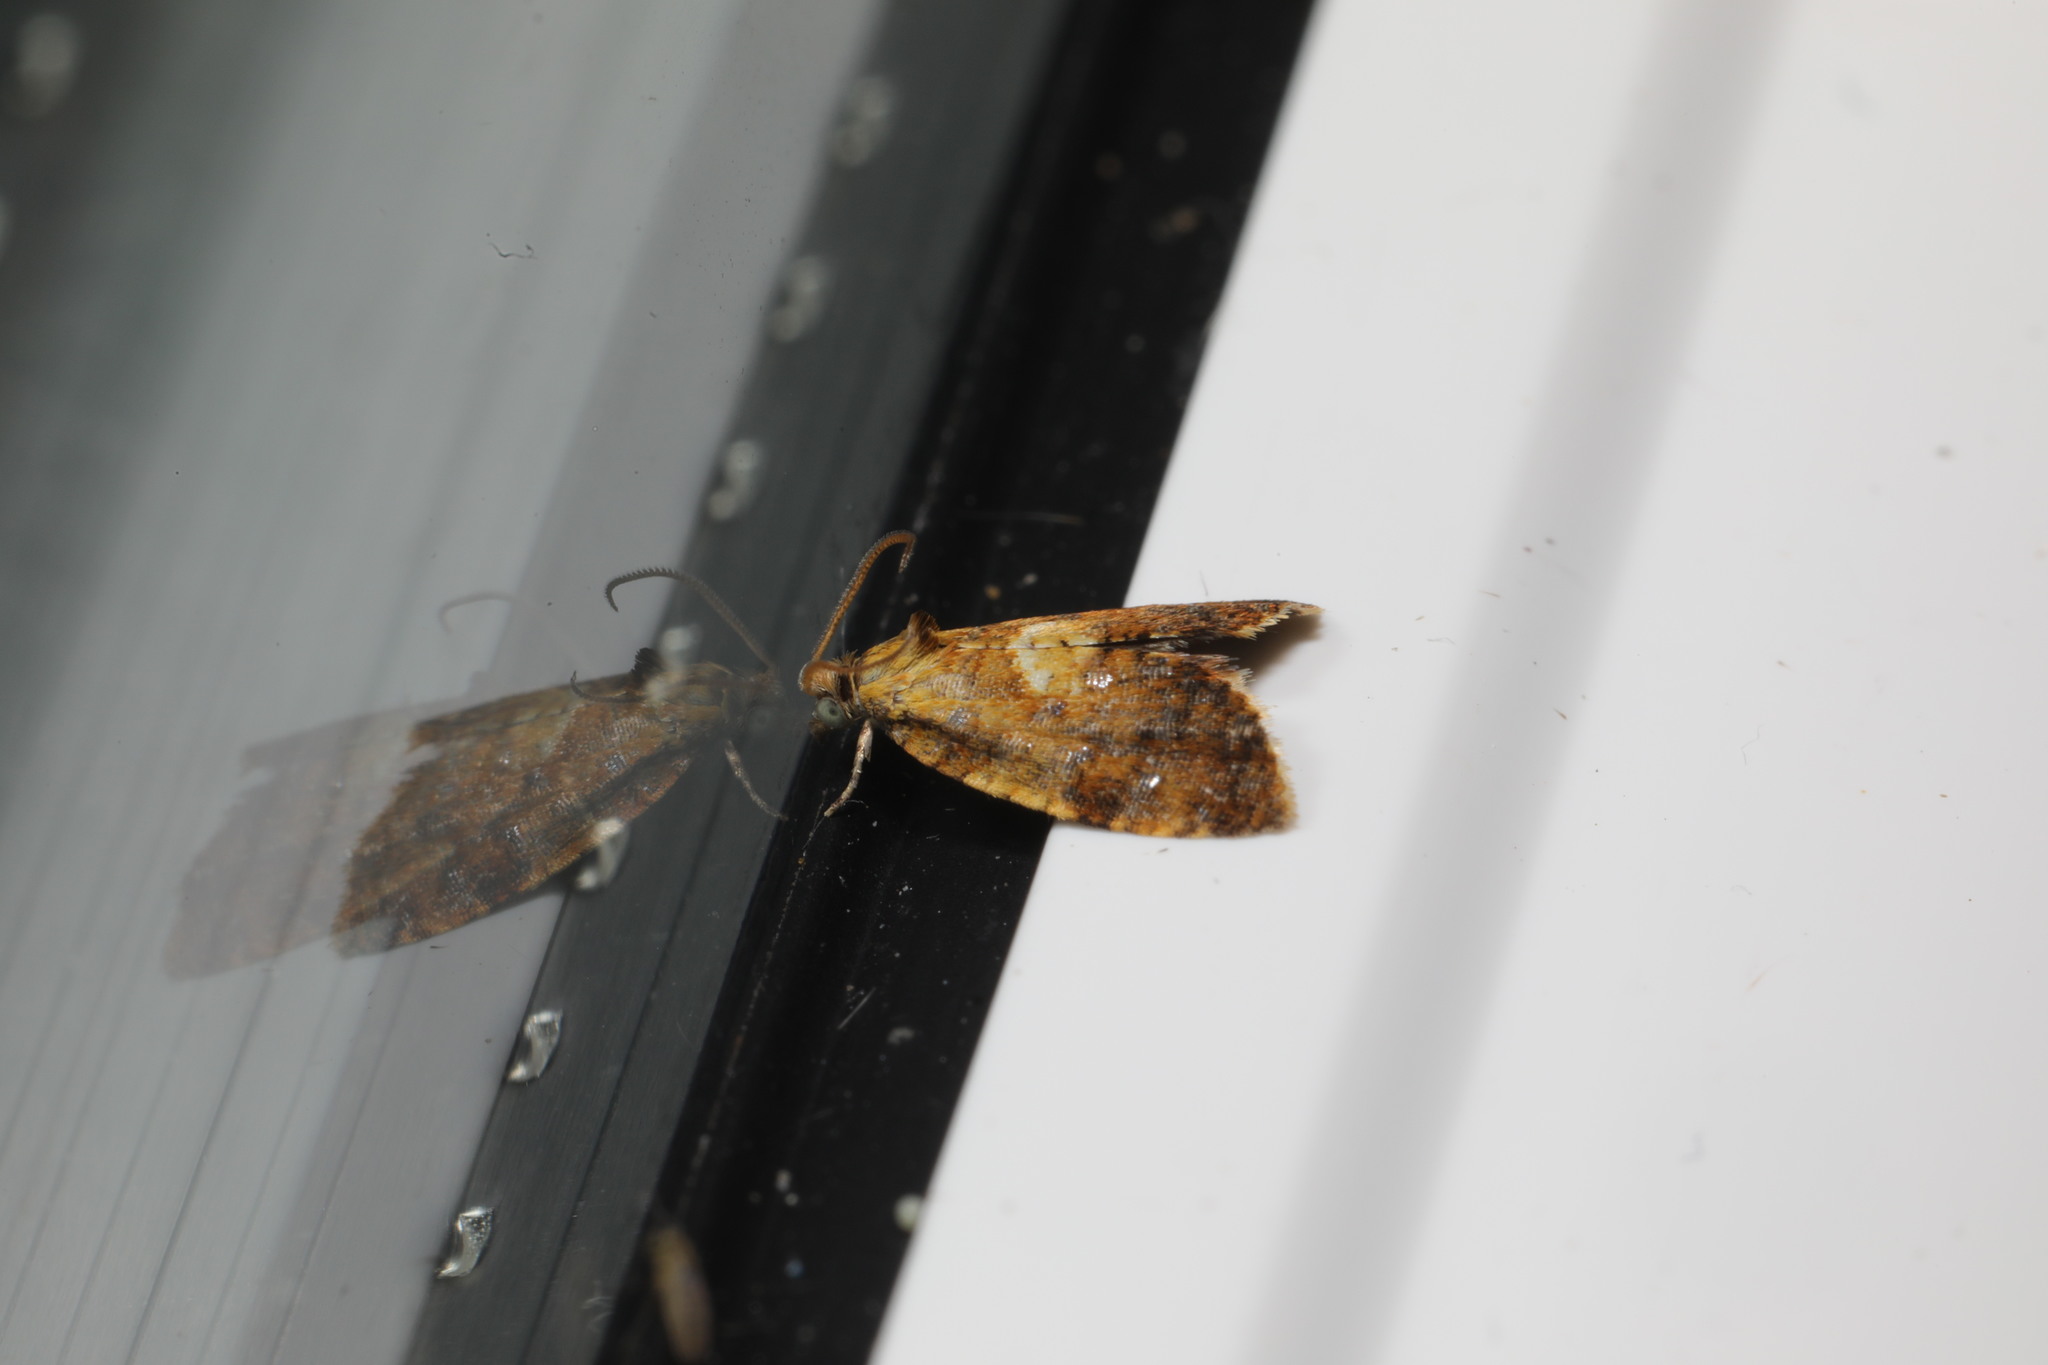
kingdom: Animalia
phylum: Arthropoda
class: Insecta
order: Lepidoptera
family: Tortricidae
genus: Pseudargyrotoza
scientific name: Pseudargyrotoza conwagana
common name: Yellow-spot twist
